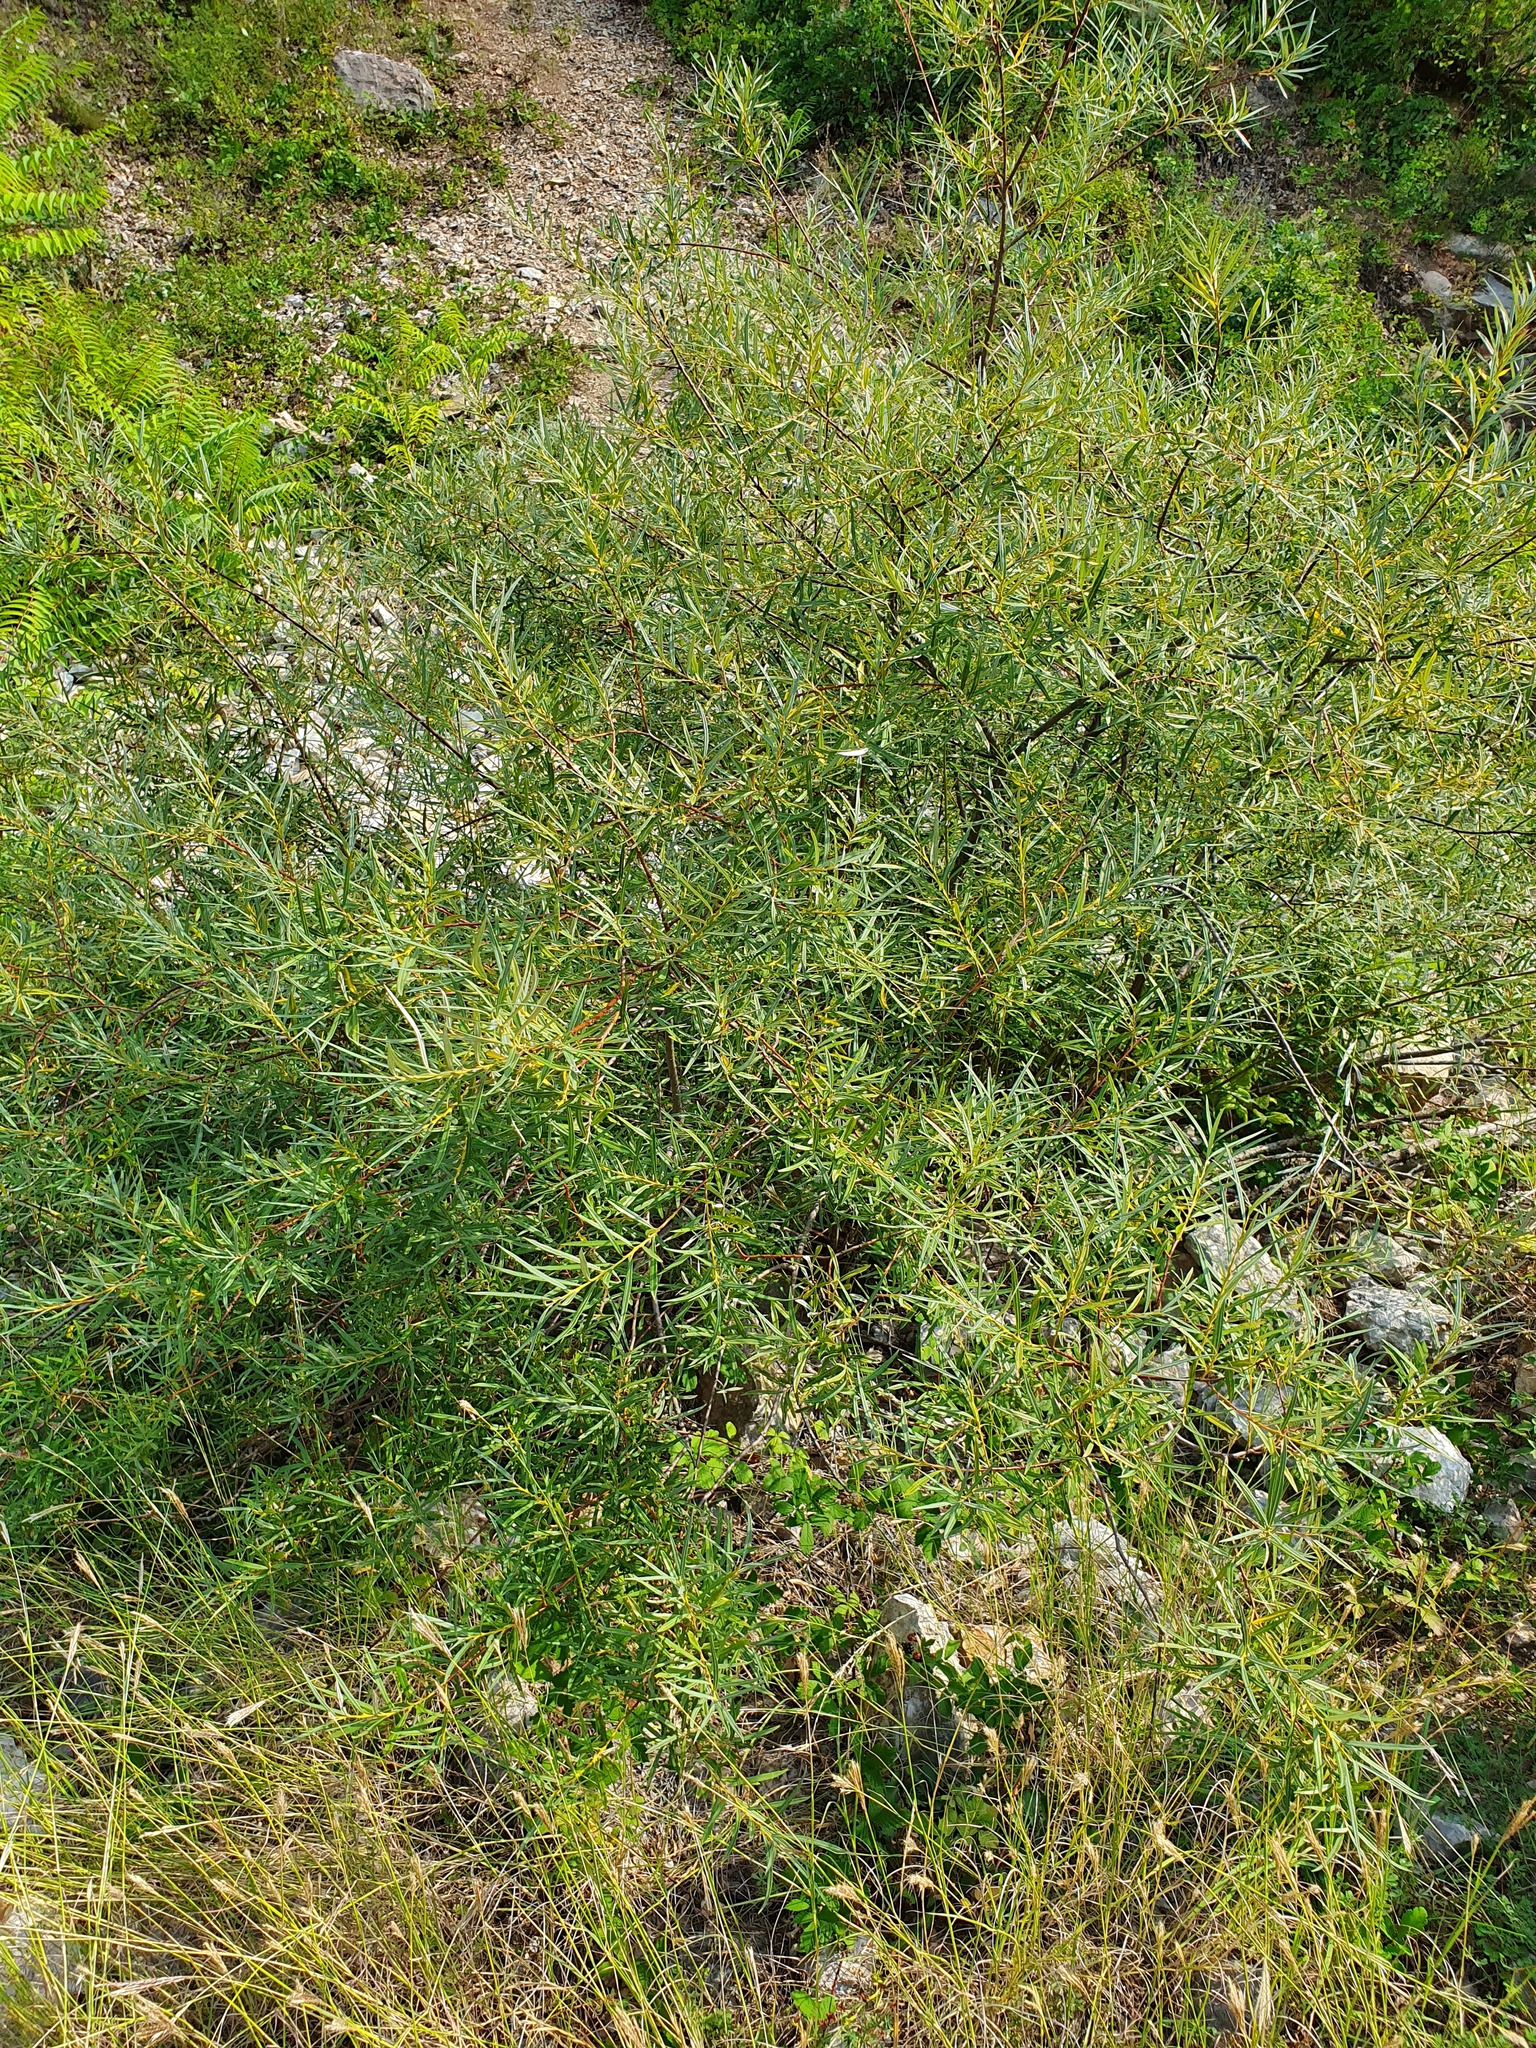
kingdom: Plantae
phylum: Tracheophyta
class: Magnoliopsida
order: Malpighiales
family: Salicaceae
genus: Salix
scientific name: Salix eleagnos
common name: Elaeagnus willow
